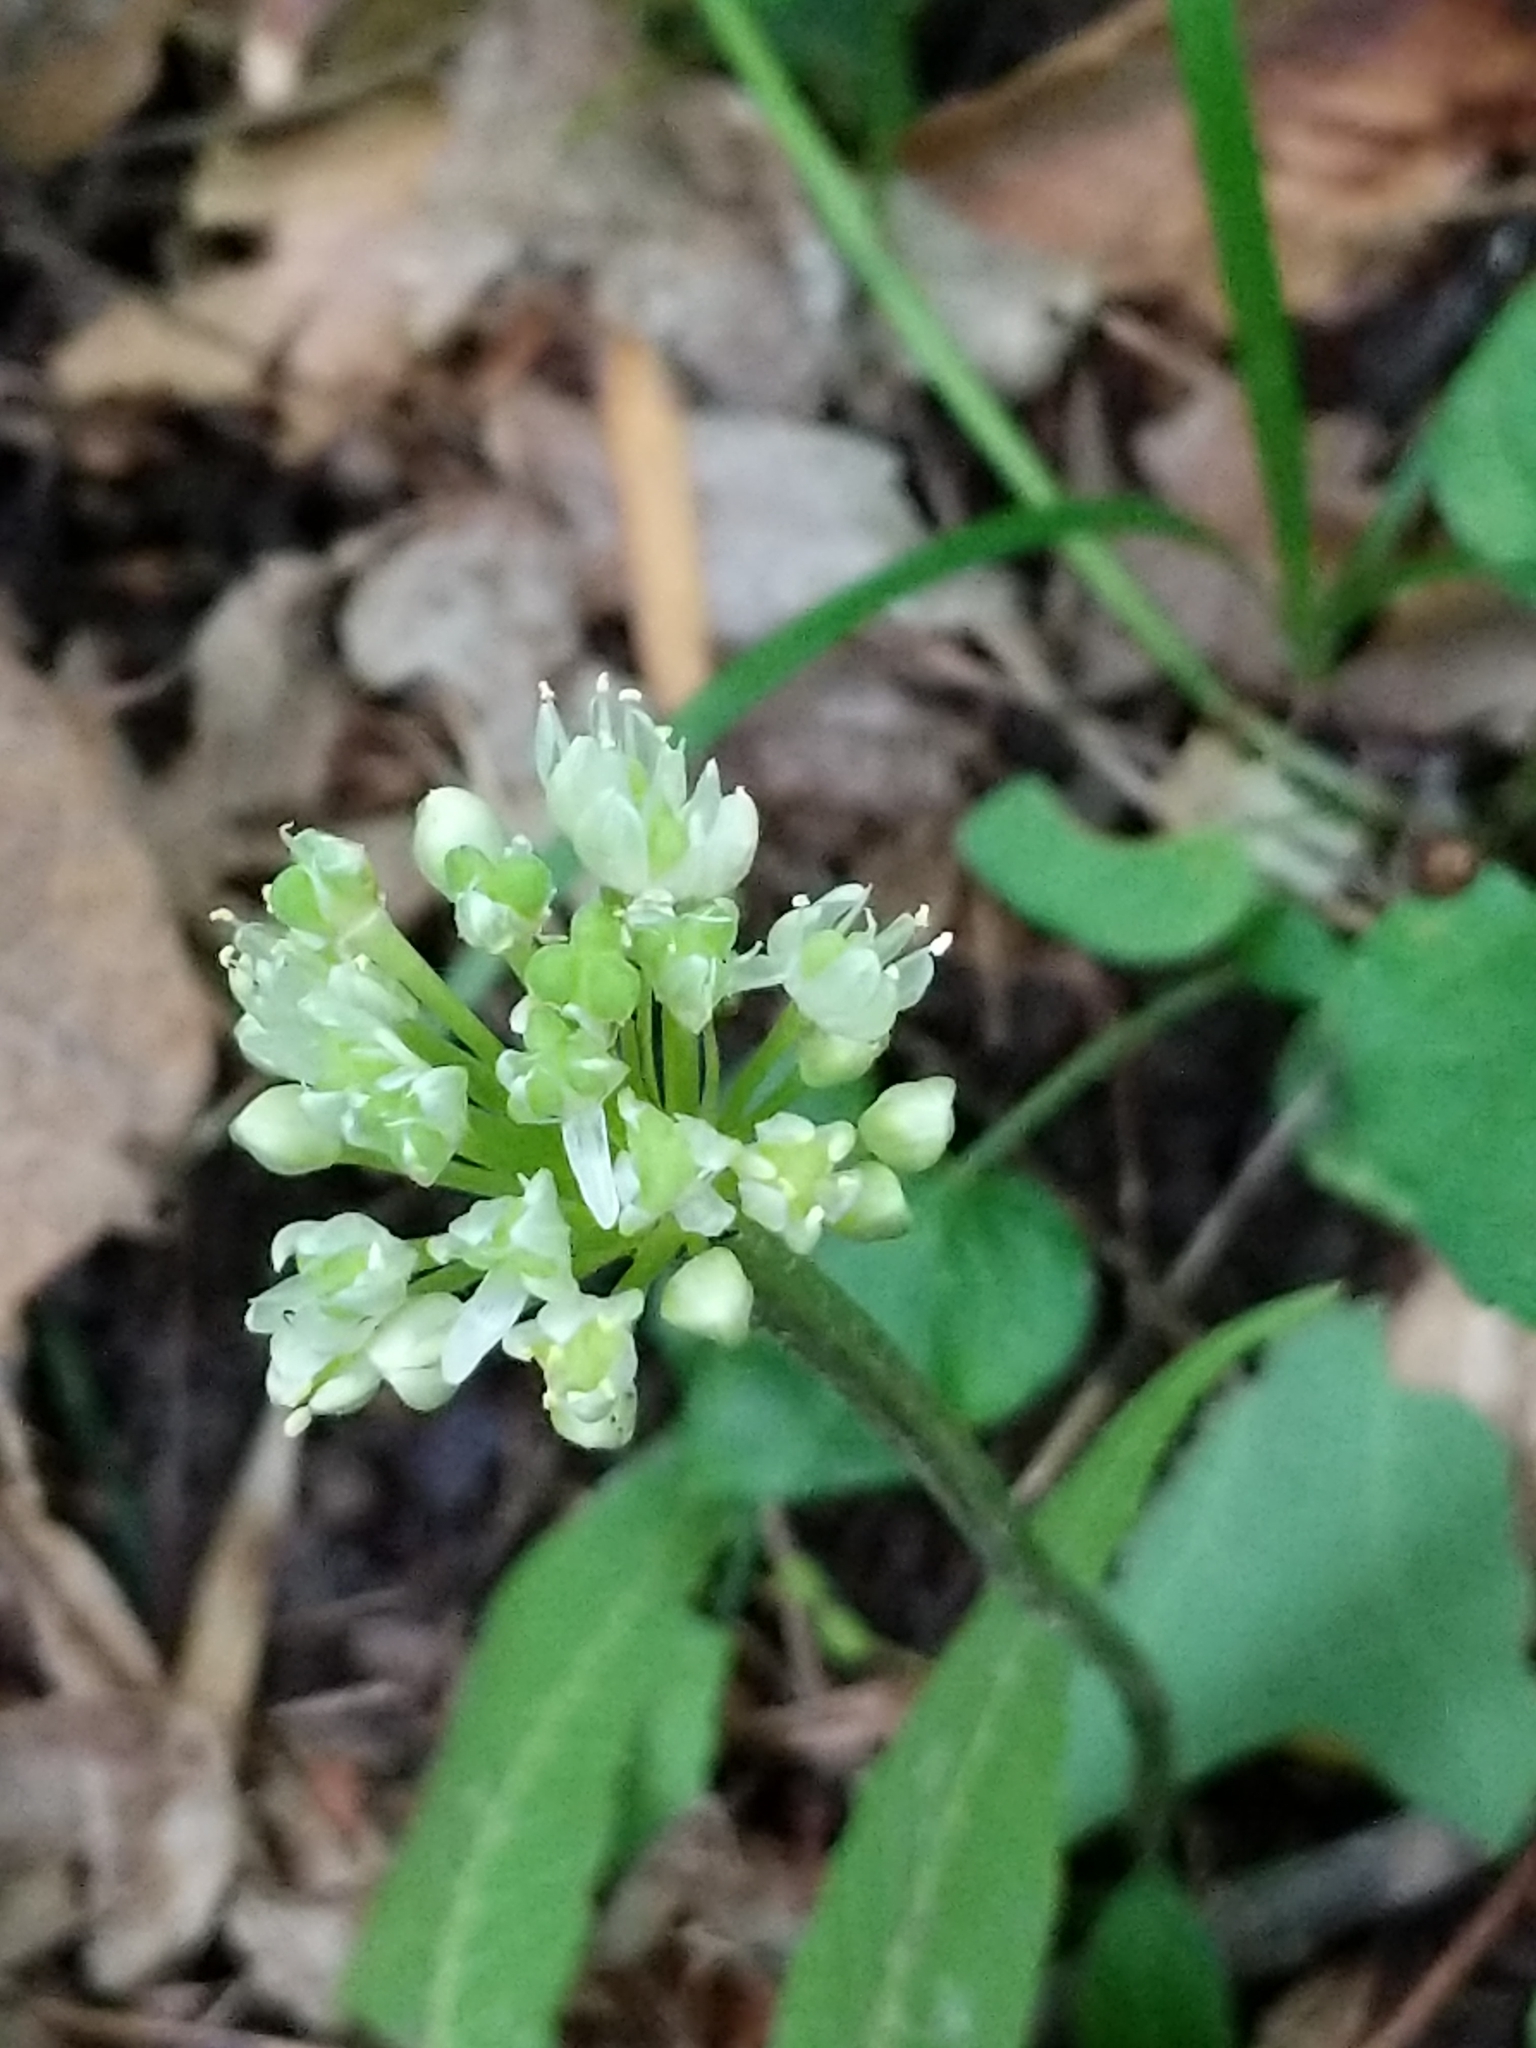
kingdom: Plantae
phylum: Tracheophyta
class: Liliopsida
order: Asparagales
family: Amaryllidaceae
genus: Allium
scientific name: Allium tricoccum
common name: Ramp
